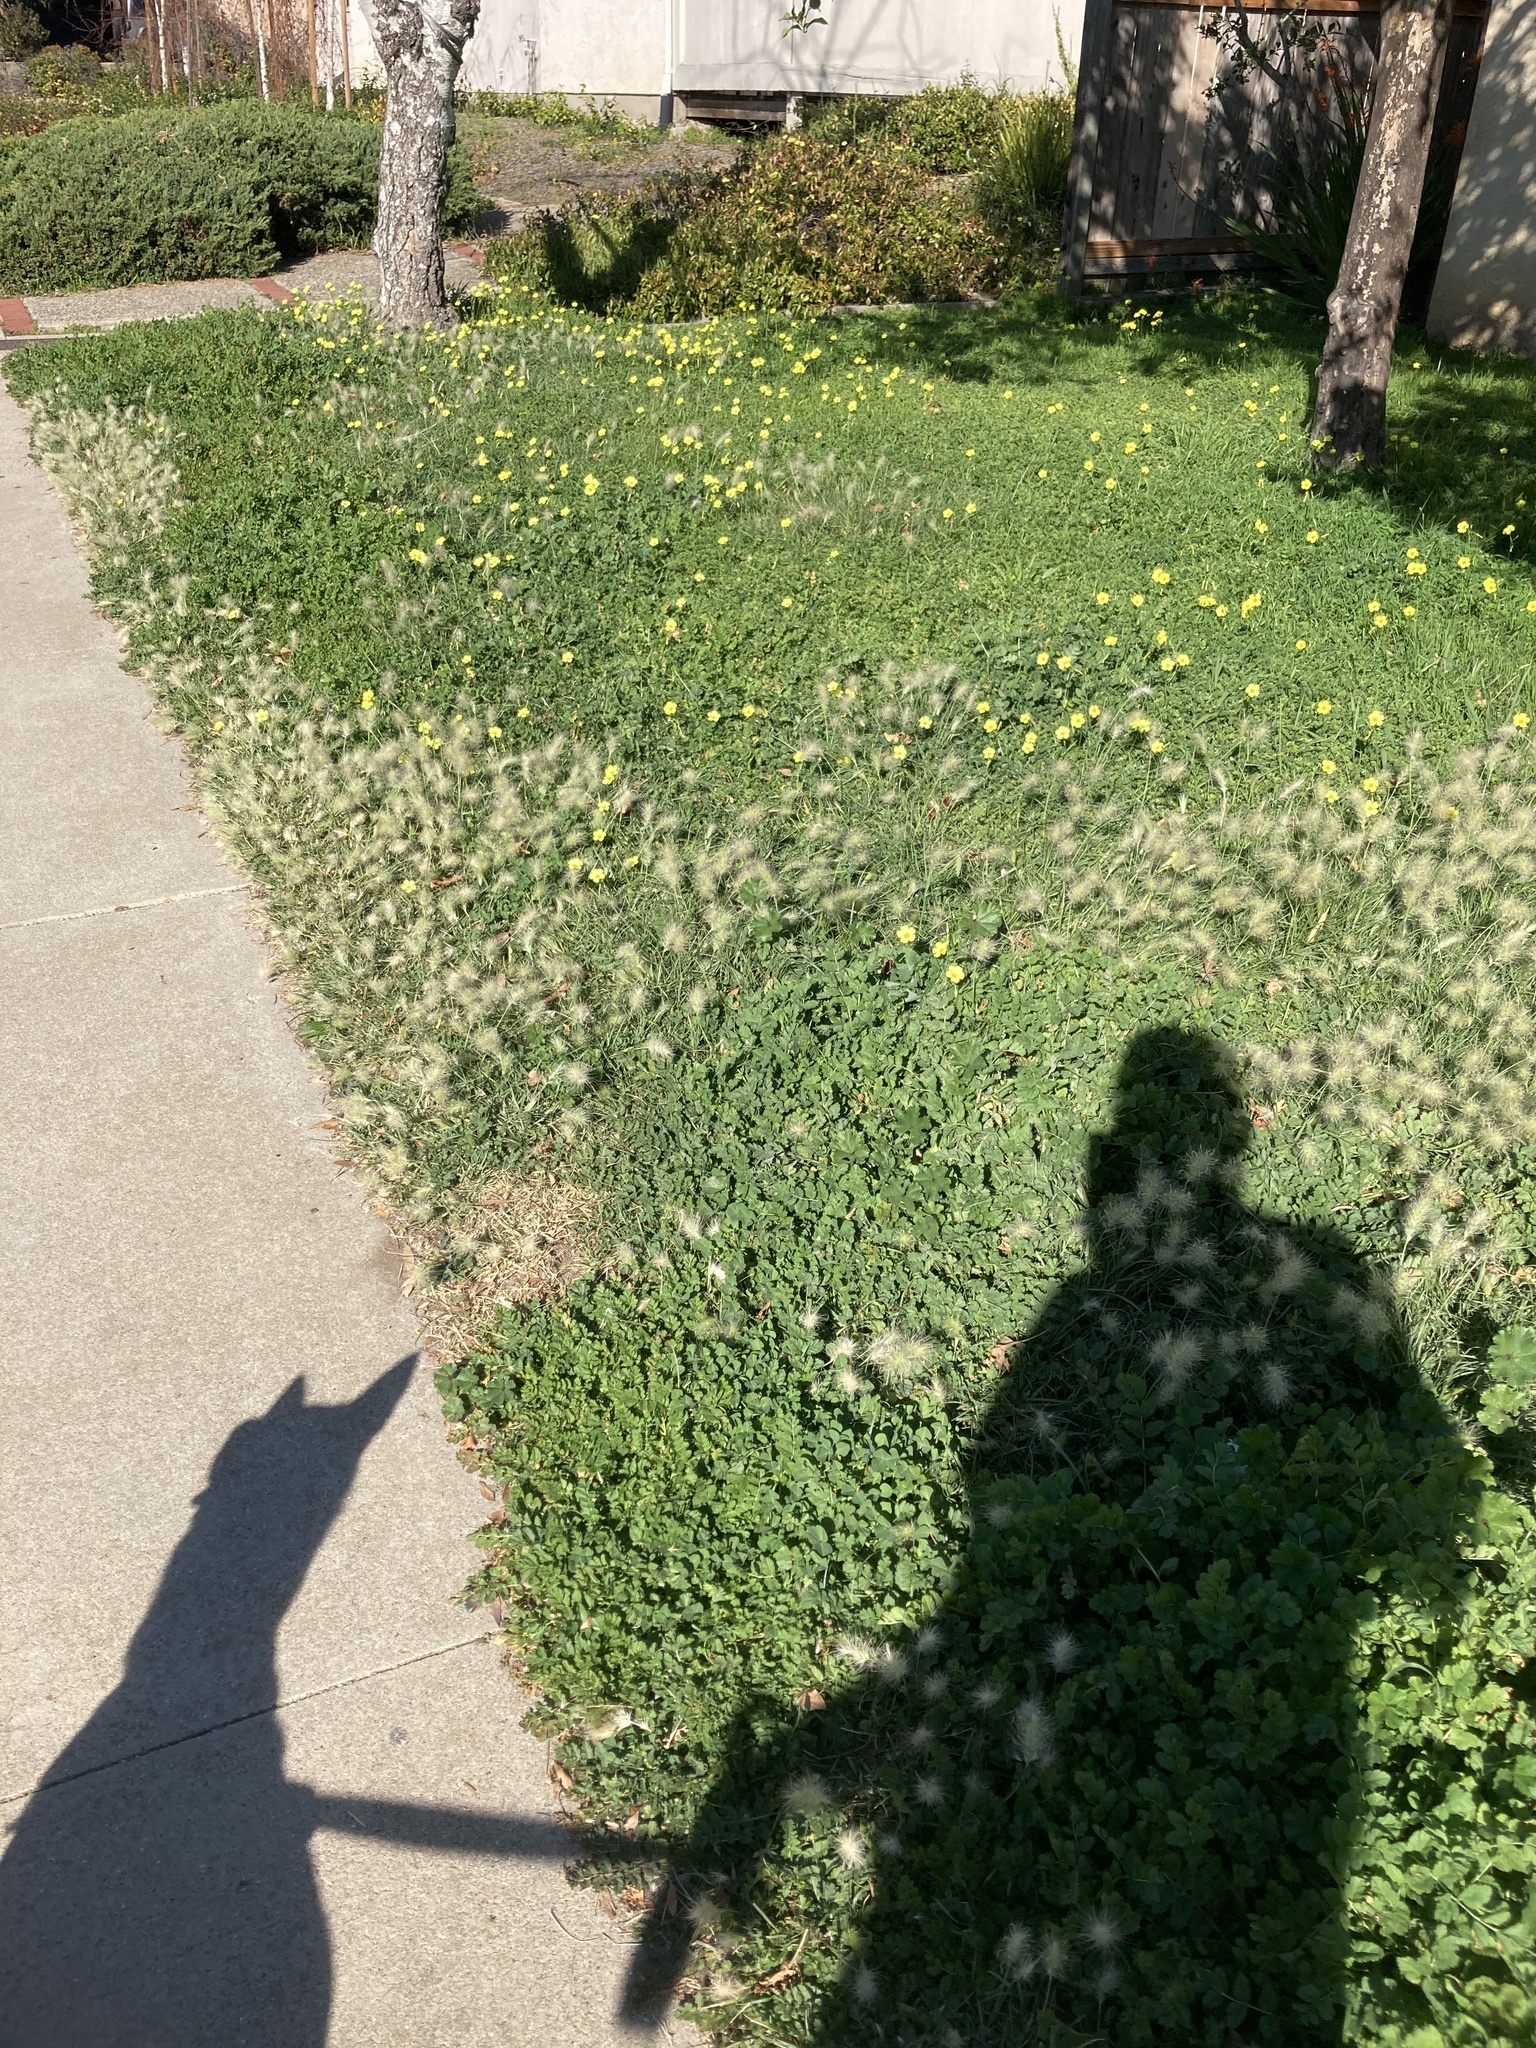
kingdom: Plantae
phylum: Tracheophyta
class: Liliopsida
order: Poales
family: Poaceae
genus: Cenchrus
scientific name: Cenchrus longisetus
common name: Feathertop
